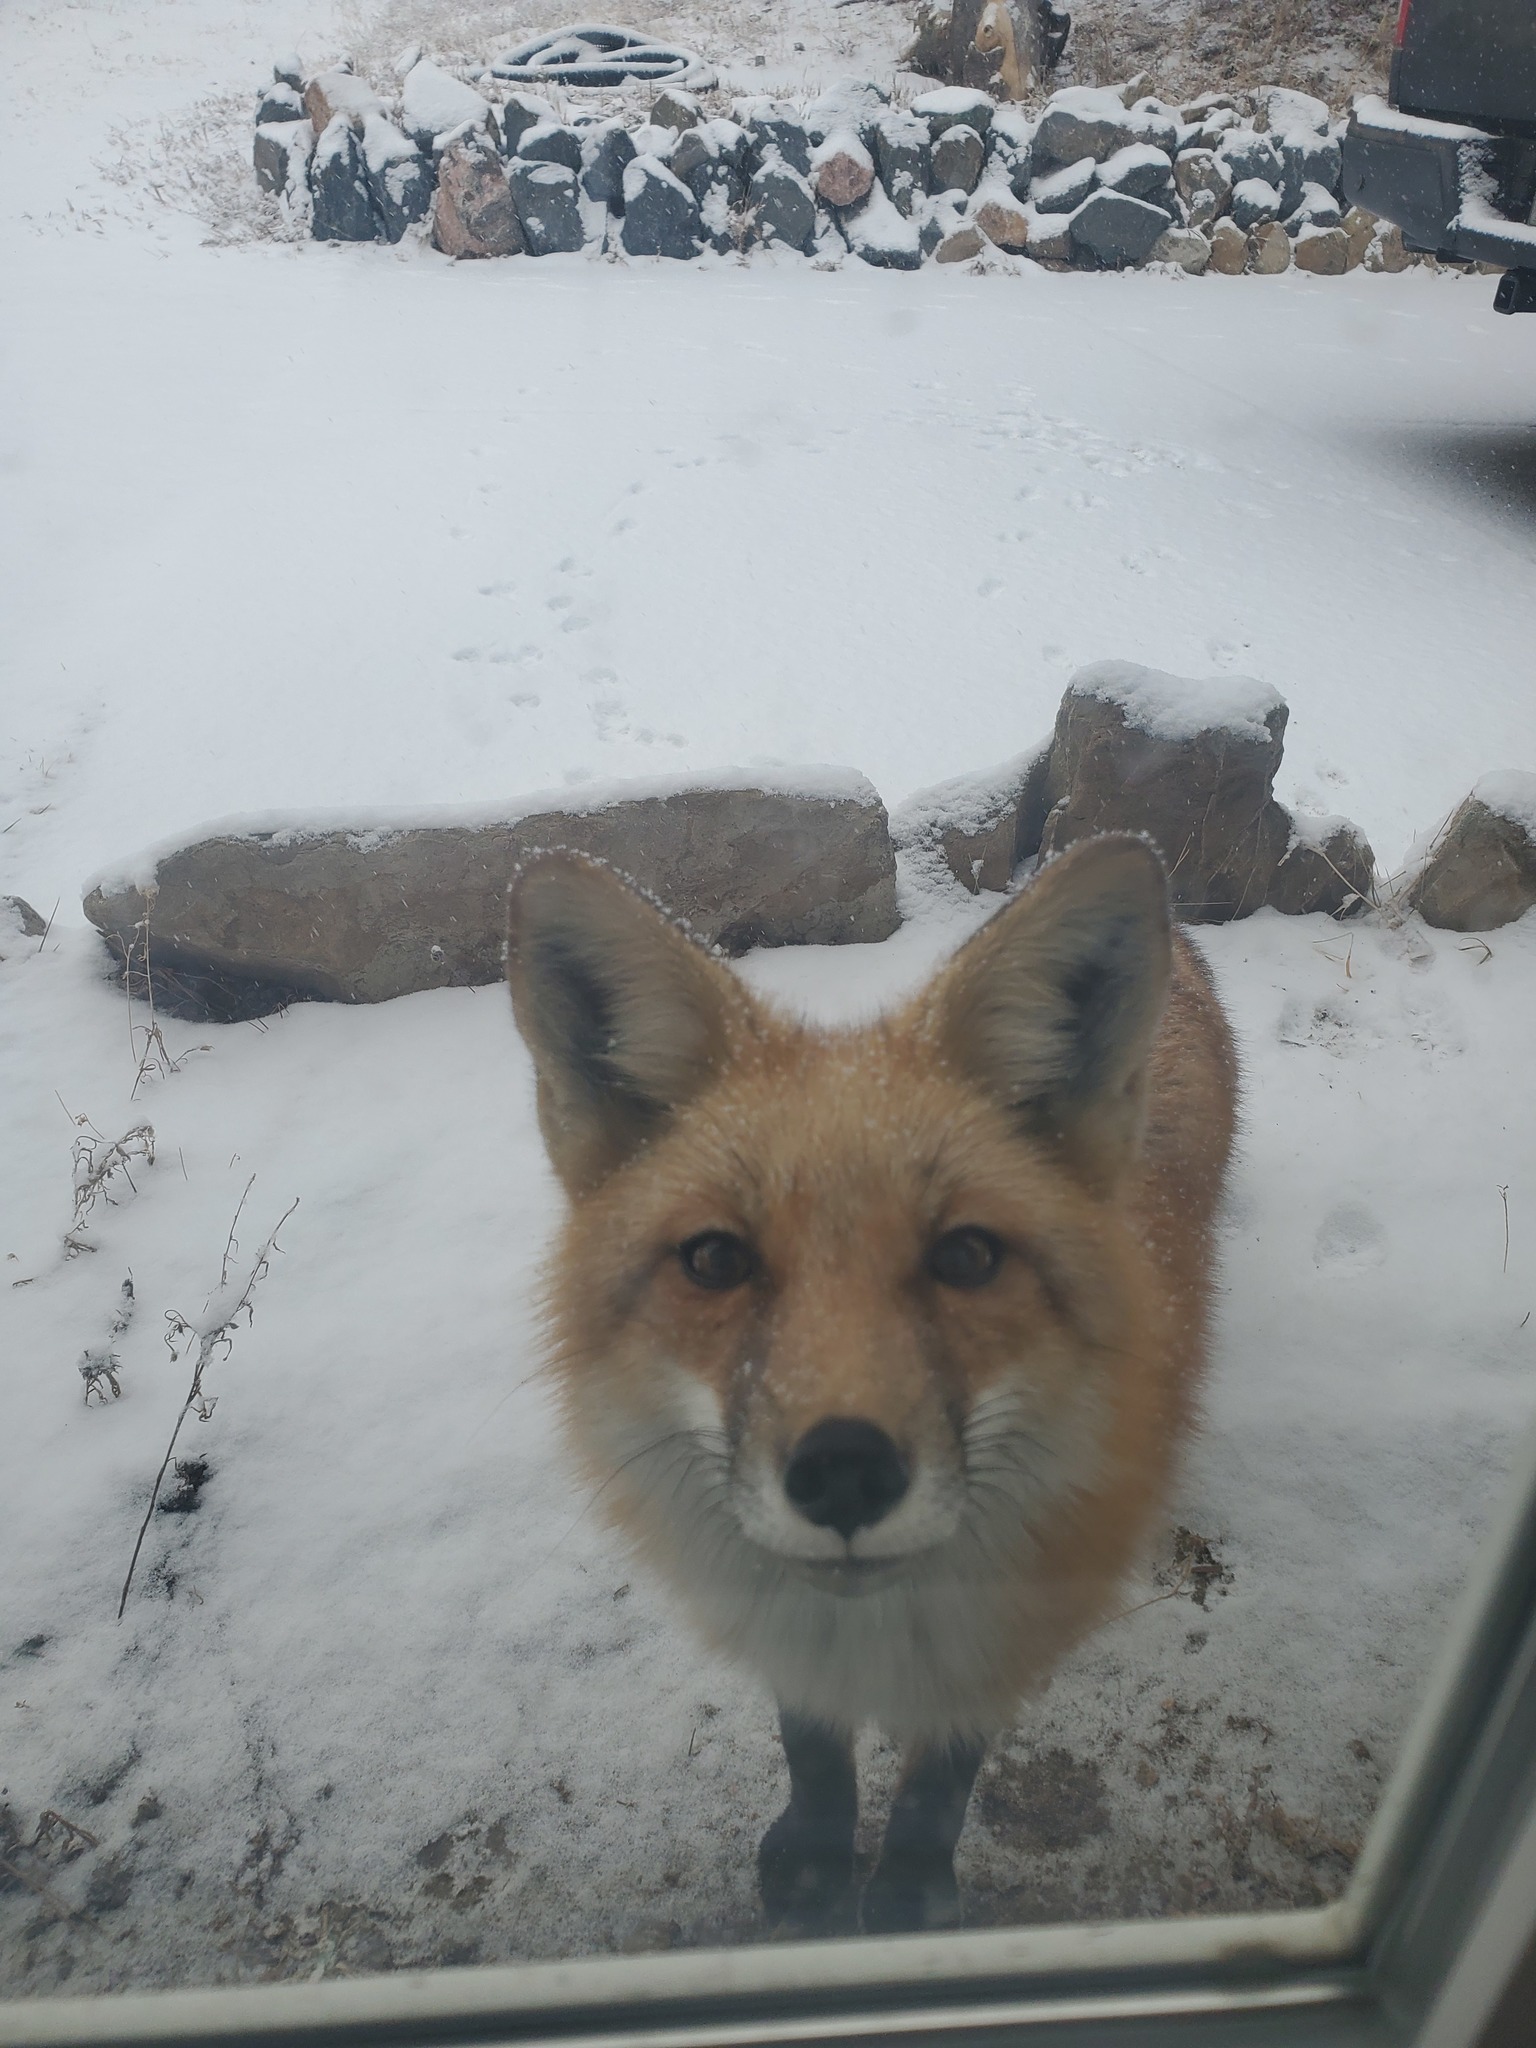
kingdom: Animalia
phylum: Chordata
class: Mammalia
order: Carnivora
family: Canidae
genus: Vulpes
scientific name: Vulpes vulpes
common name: Red fox
